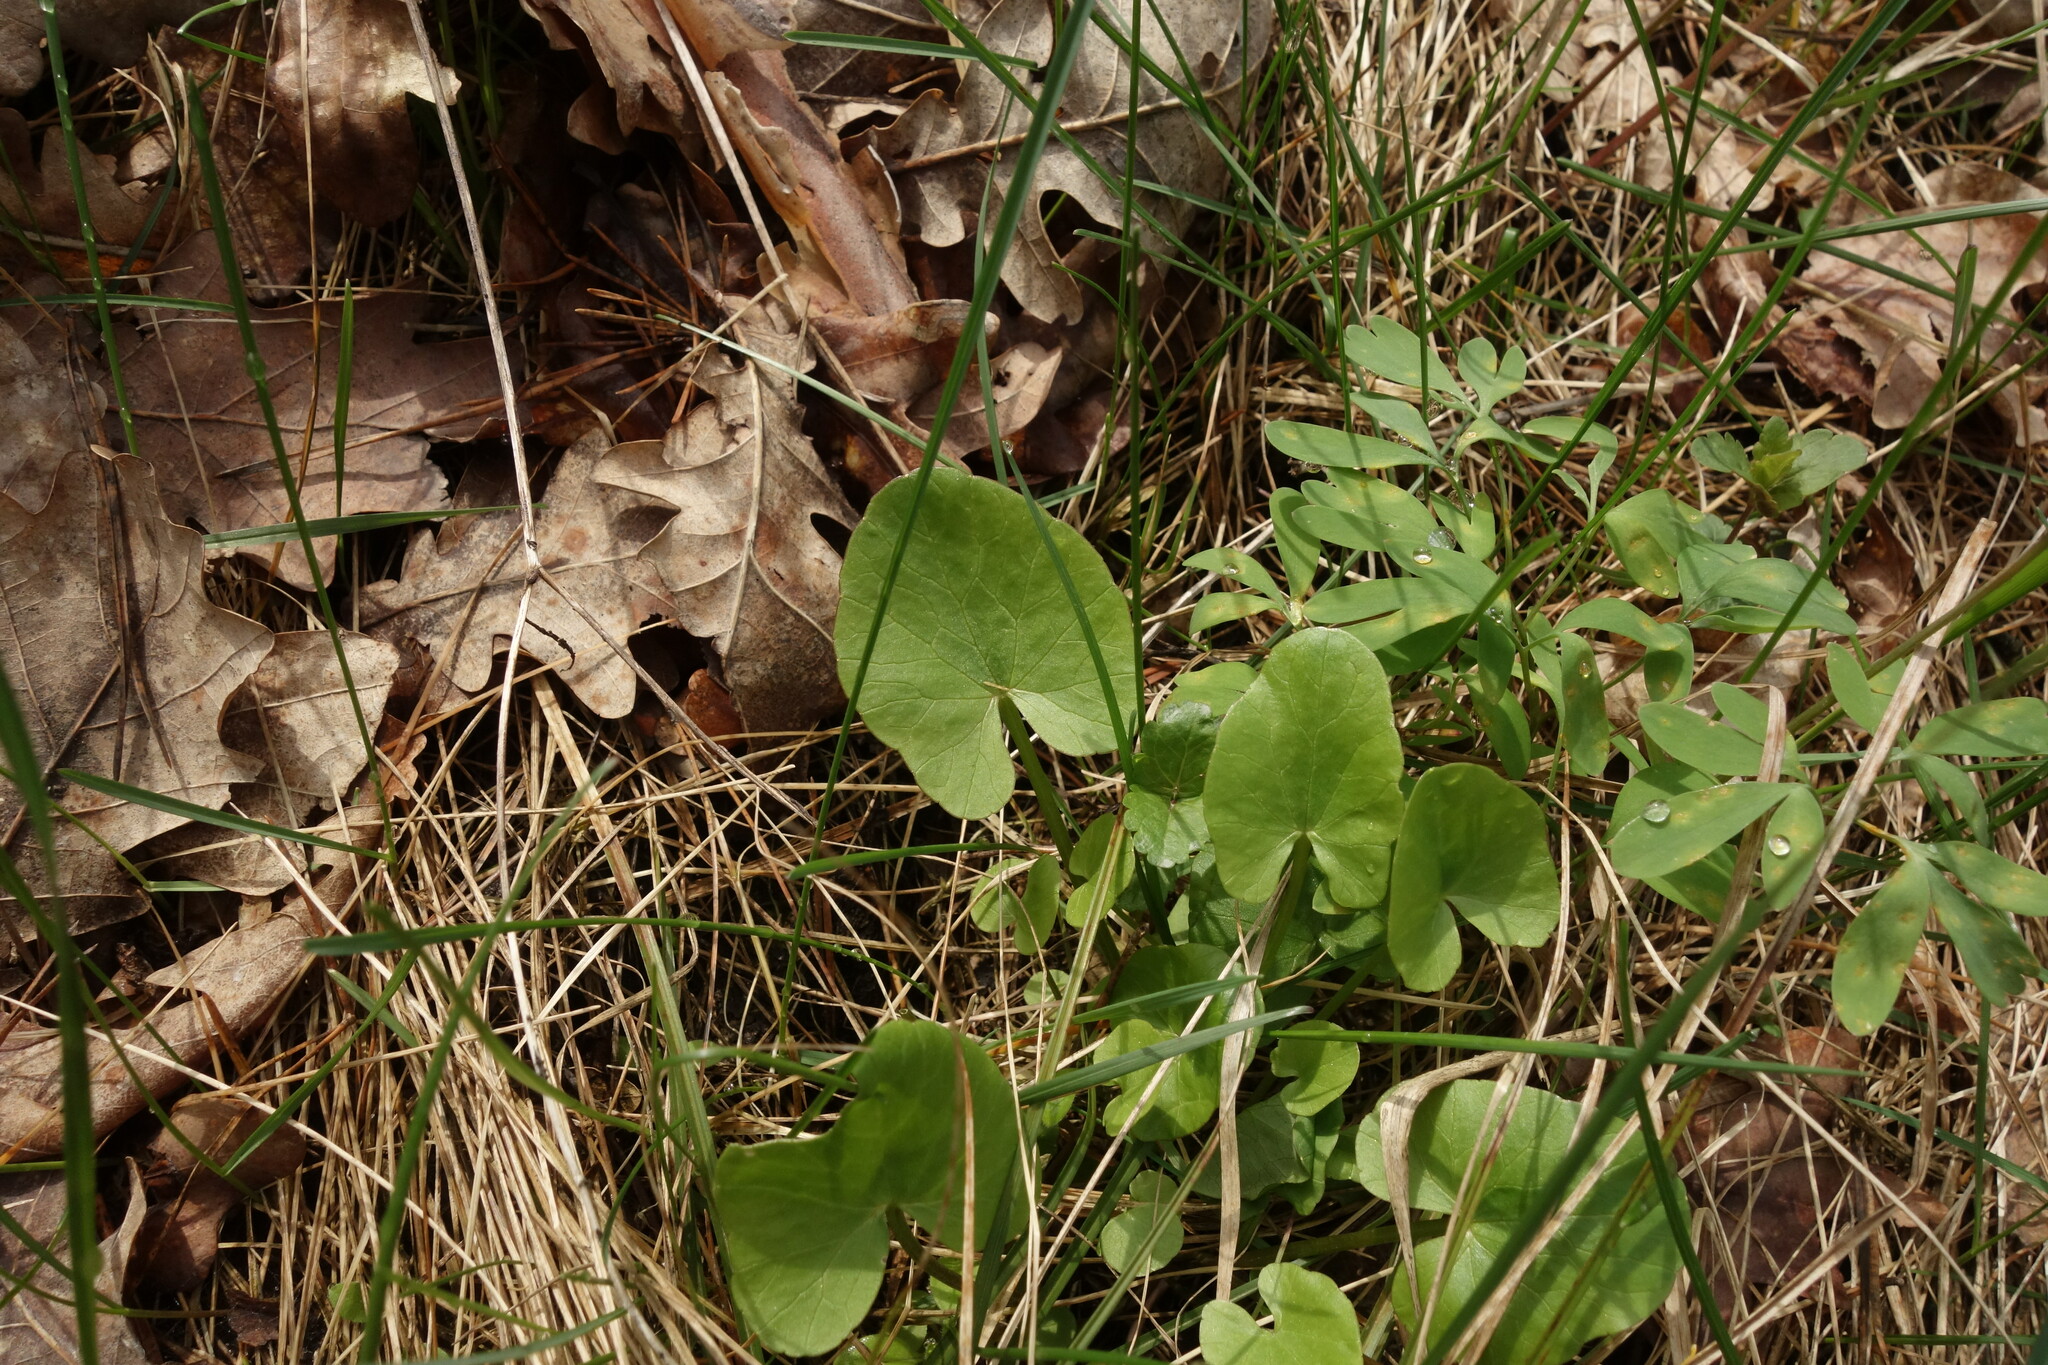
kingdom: Plantae
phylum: Tracheophyta
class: Magnoliopsida
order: Ranunculales
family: Ranunculaceae
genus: Ficaria
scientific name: Ficaria verna
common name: Lesser celandine
